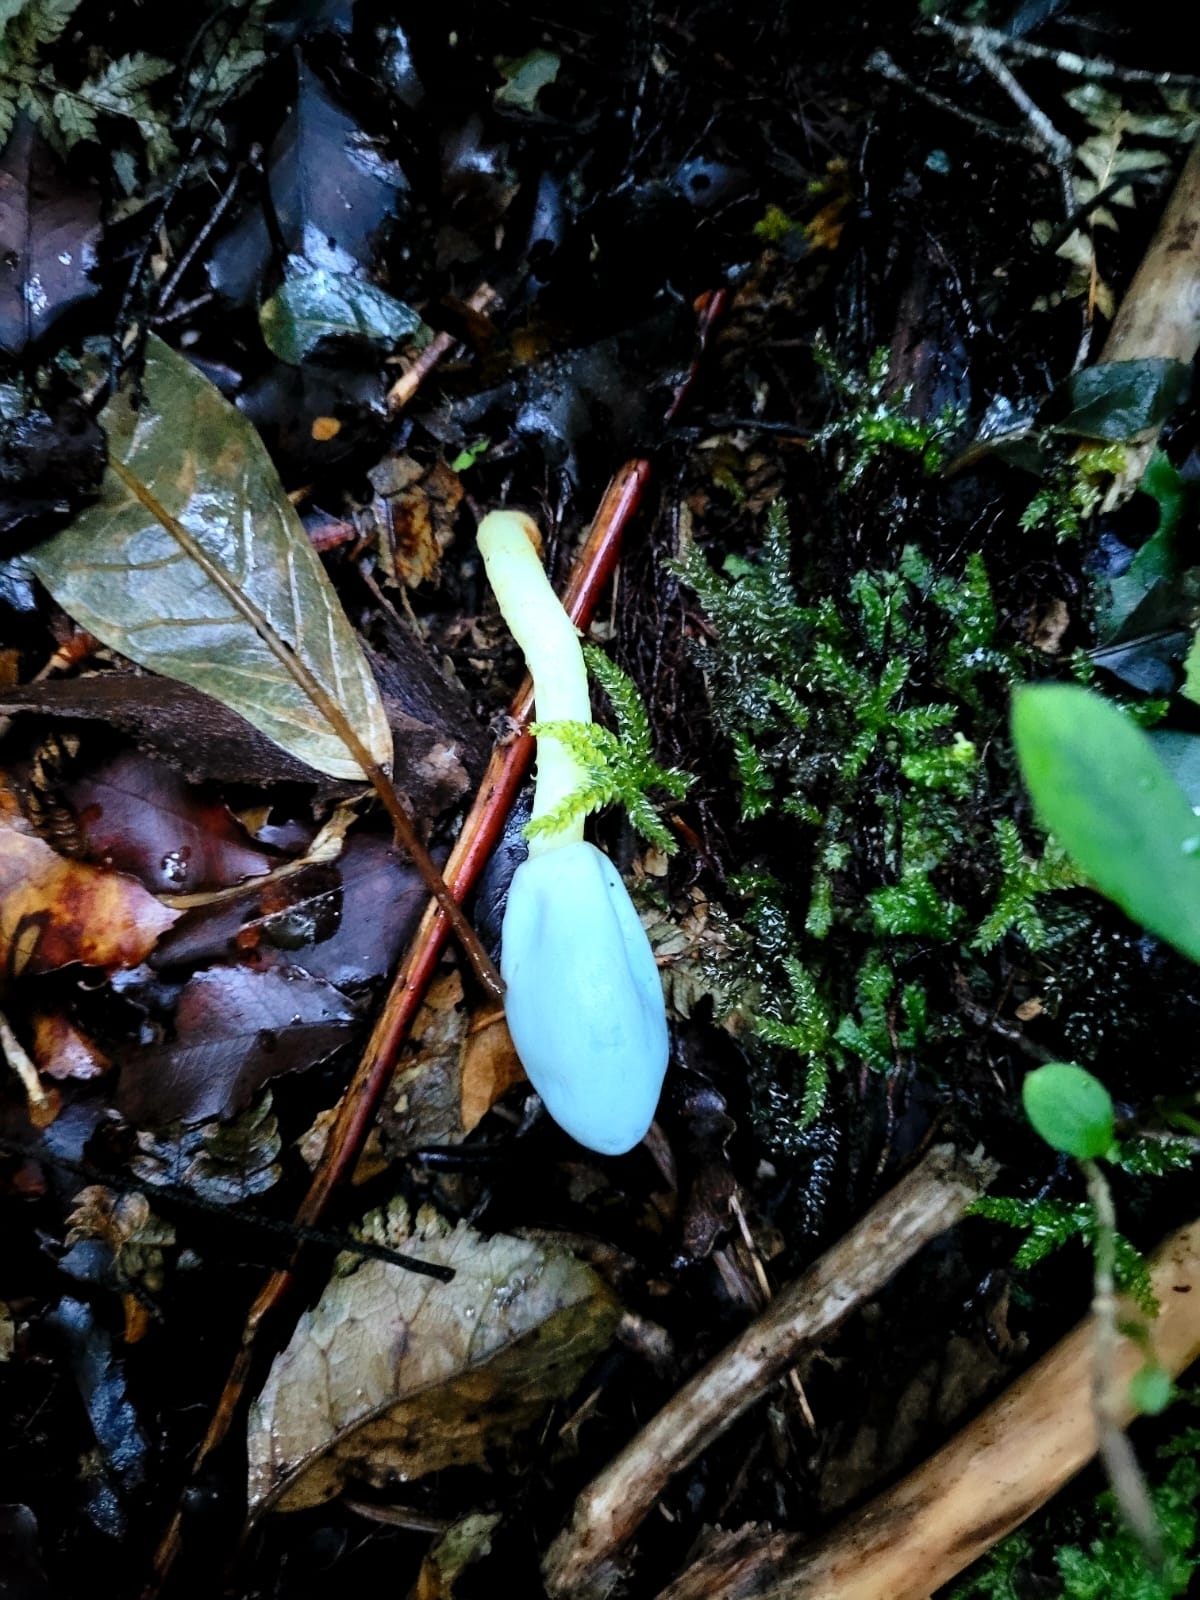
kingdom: Fungi
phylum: Basidiomycota
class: Agaricomycetes
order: Agaricales
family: Agaricaceae
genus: Clavogaster
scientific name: Clavogaster virescens
